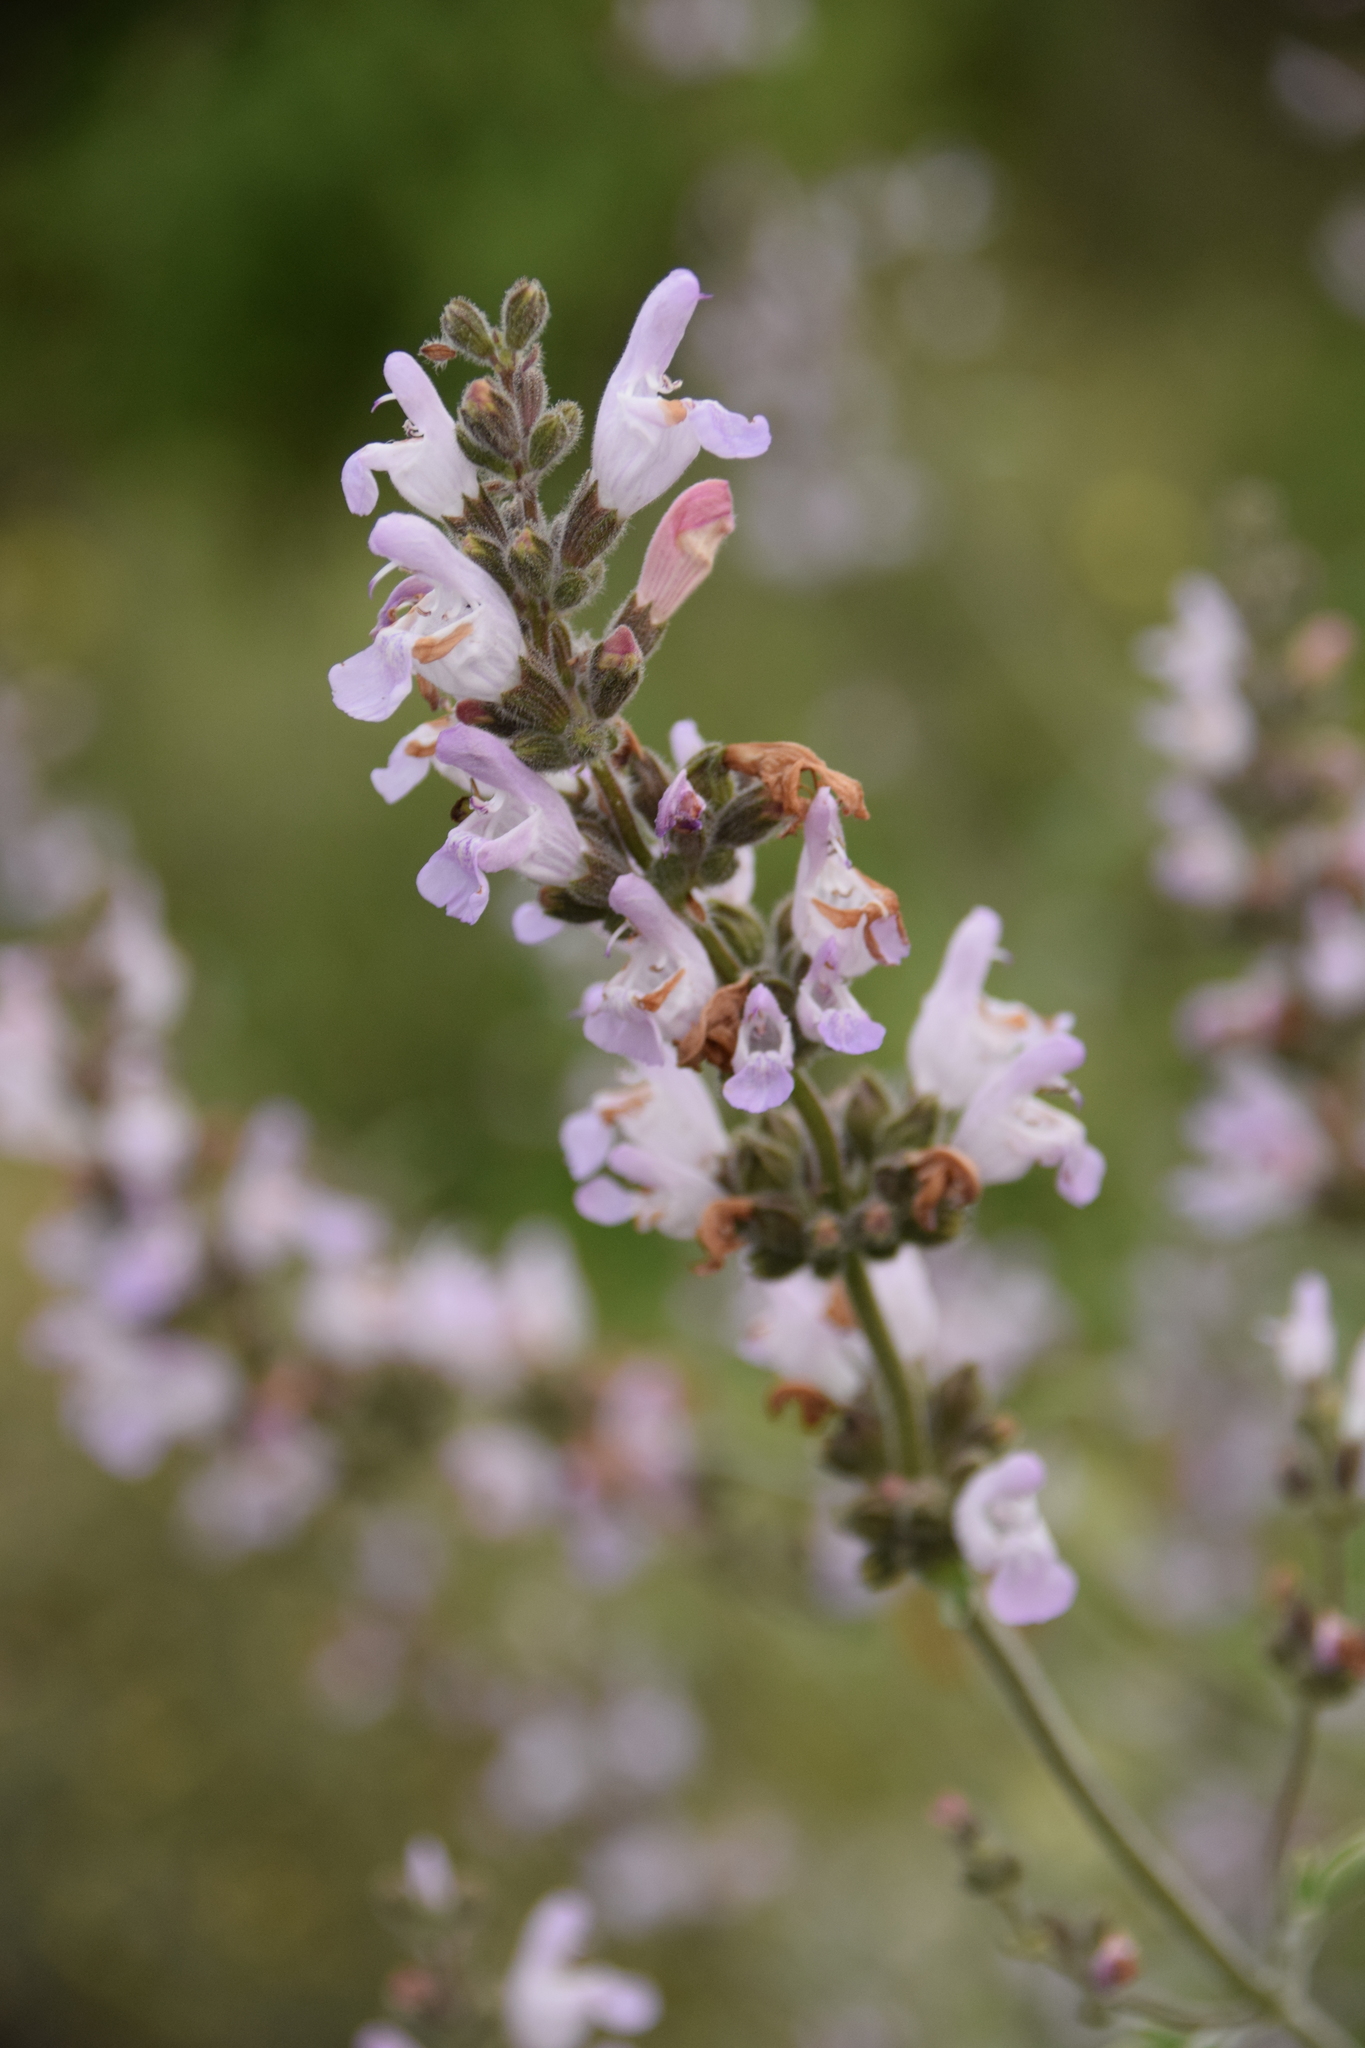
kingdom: Plantae
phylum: Tracheophyta
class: Magnoliopsida
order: Lamiales
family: Lamiaceae
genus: Salvia
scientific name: Salvia fruticosa
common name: Greek sage
